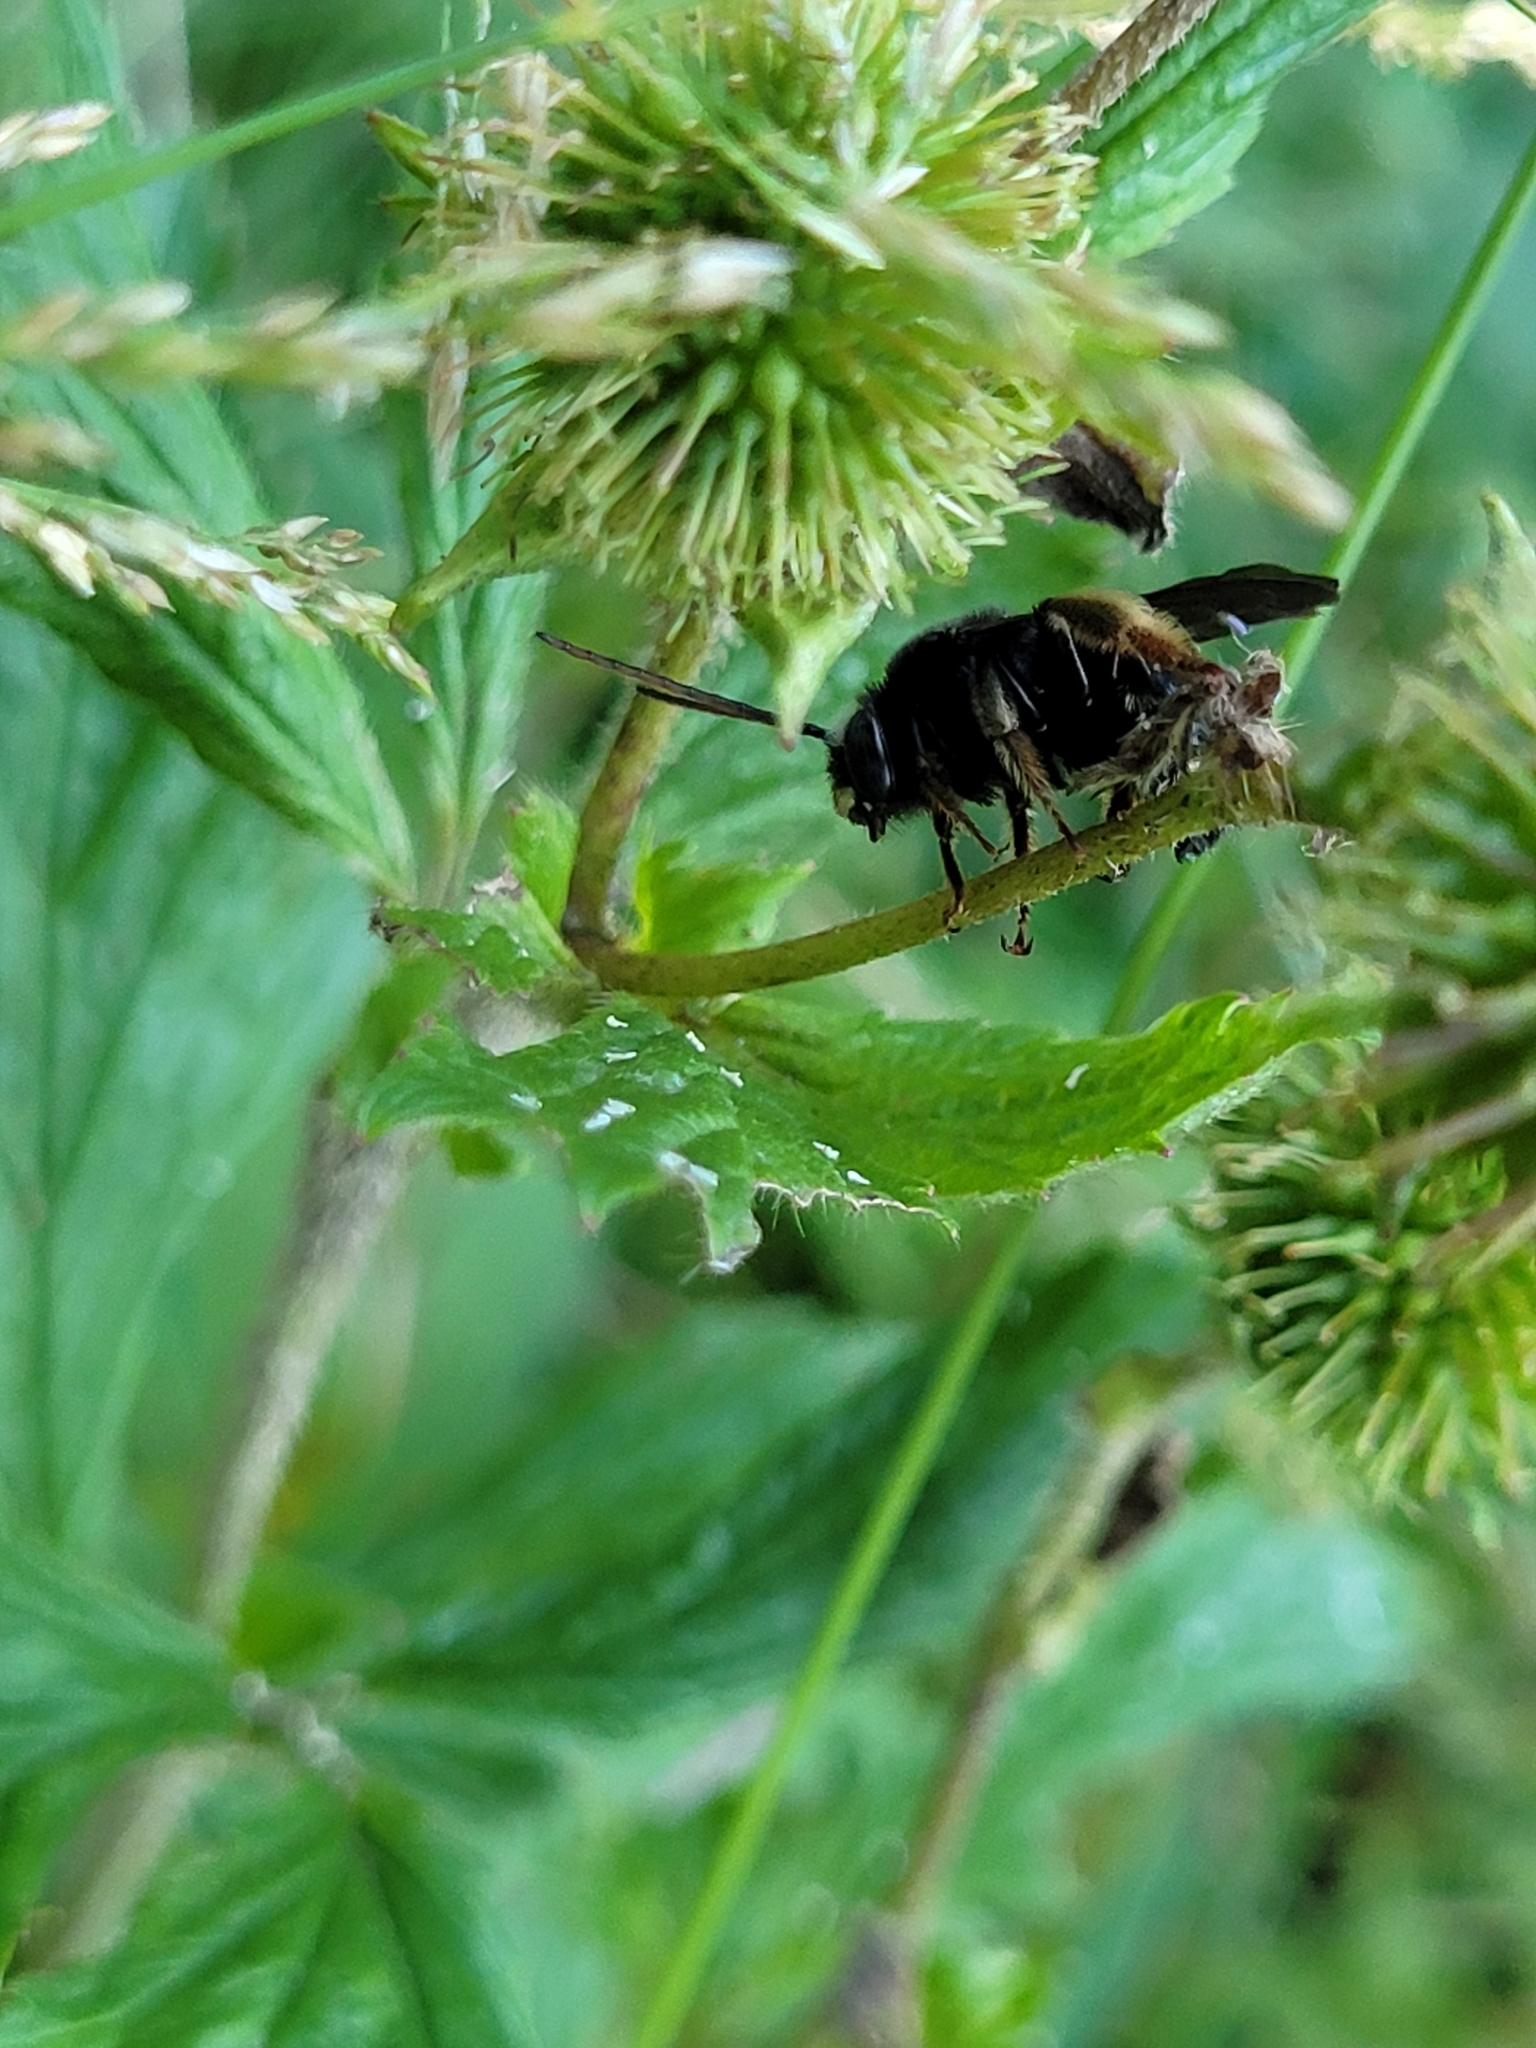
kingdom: Animalia
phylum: Arthropoda
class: Insecta
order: Hymenoptera
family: Apidae
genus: Melissodes
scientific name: Melissodes bimaculatus
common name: Two-spotted long-horned bee
